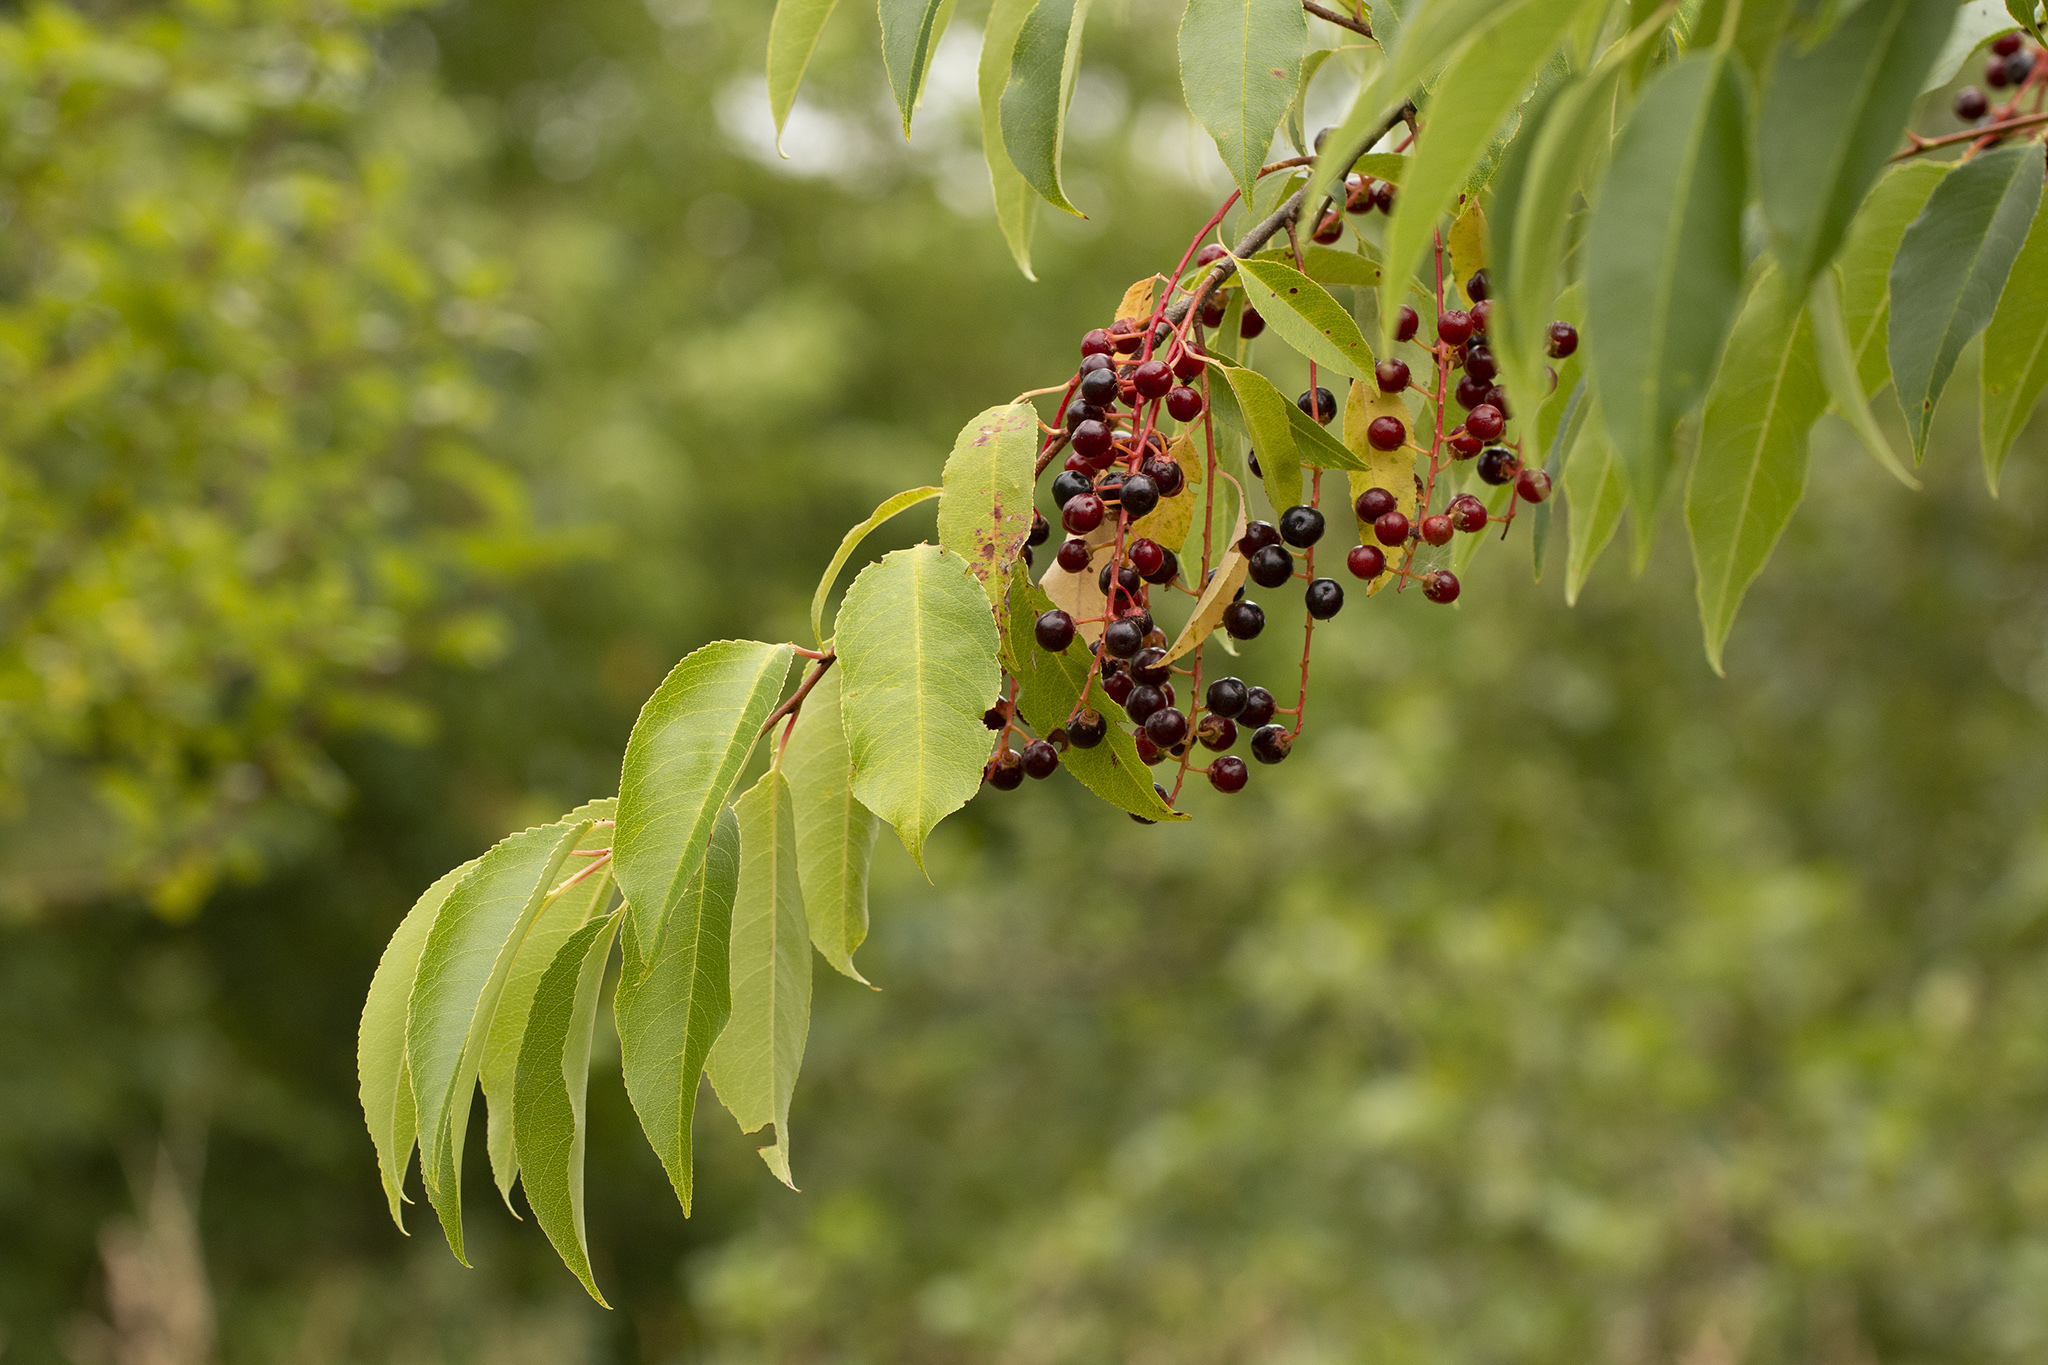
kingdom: Plantae
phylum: Tracheophyta
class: Magnoliopsida
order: Rosales
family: Rosaceae
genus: Prunus
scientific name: Prunus serotina
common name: Black cherry
